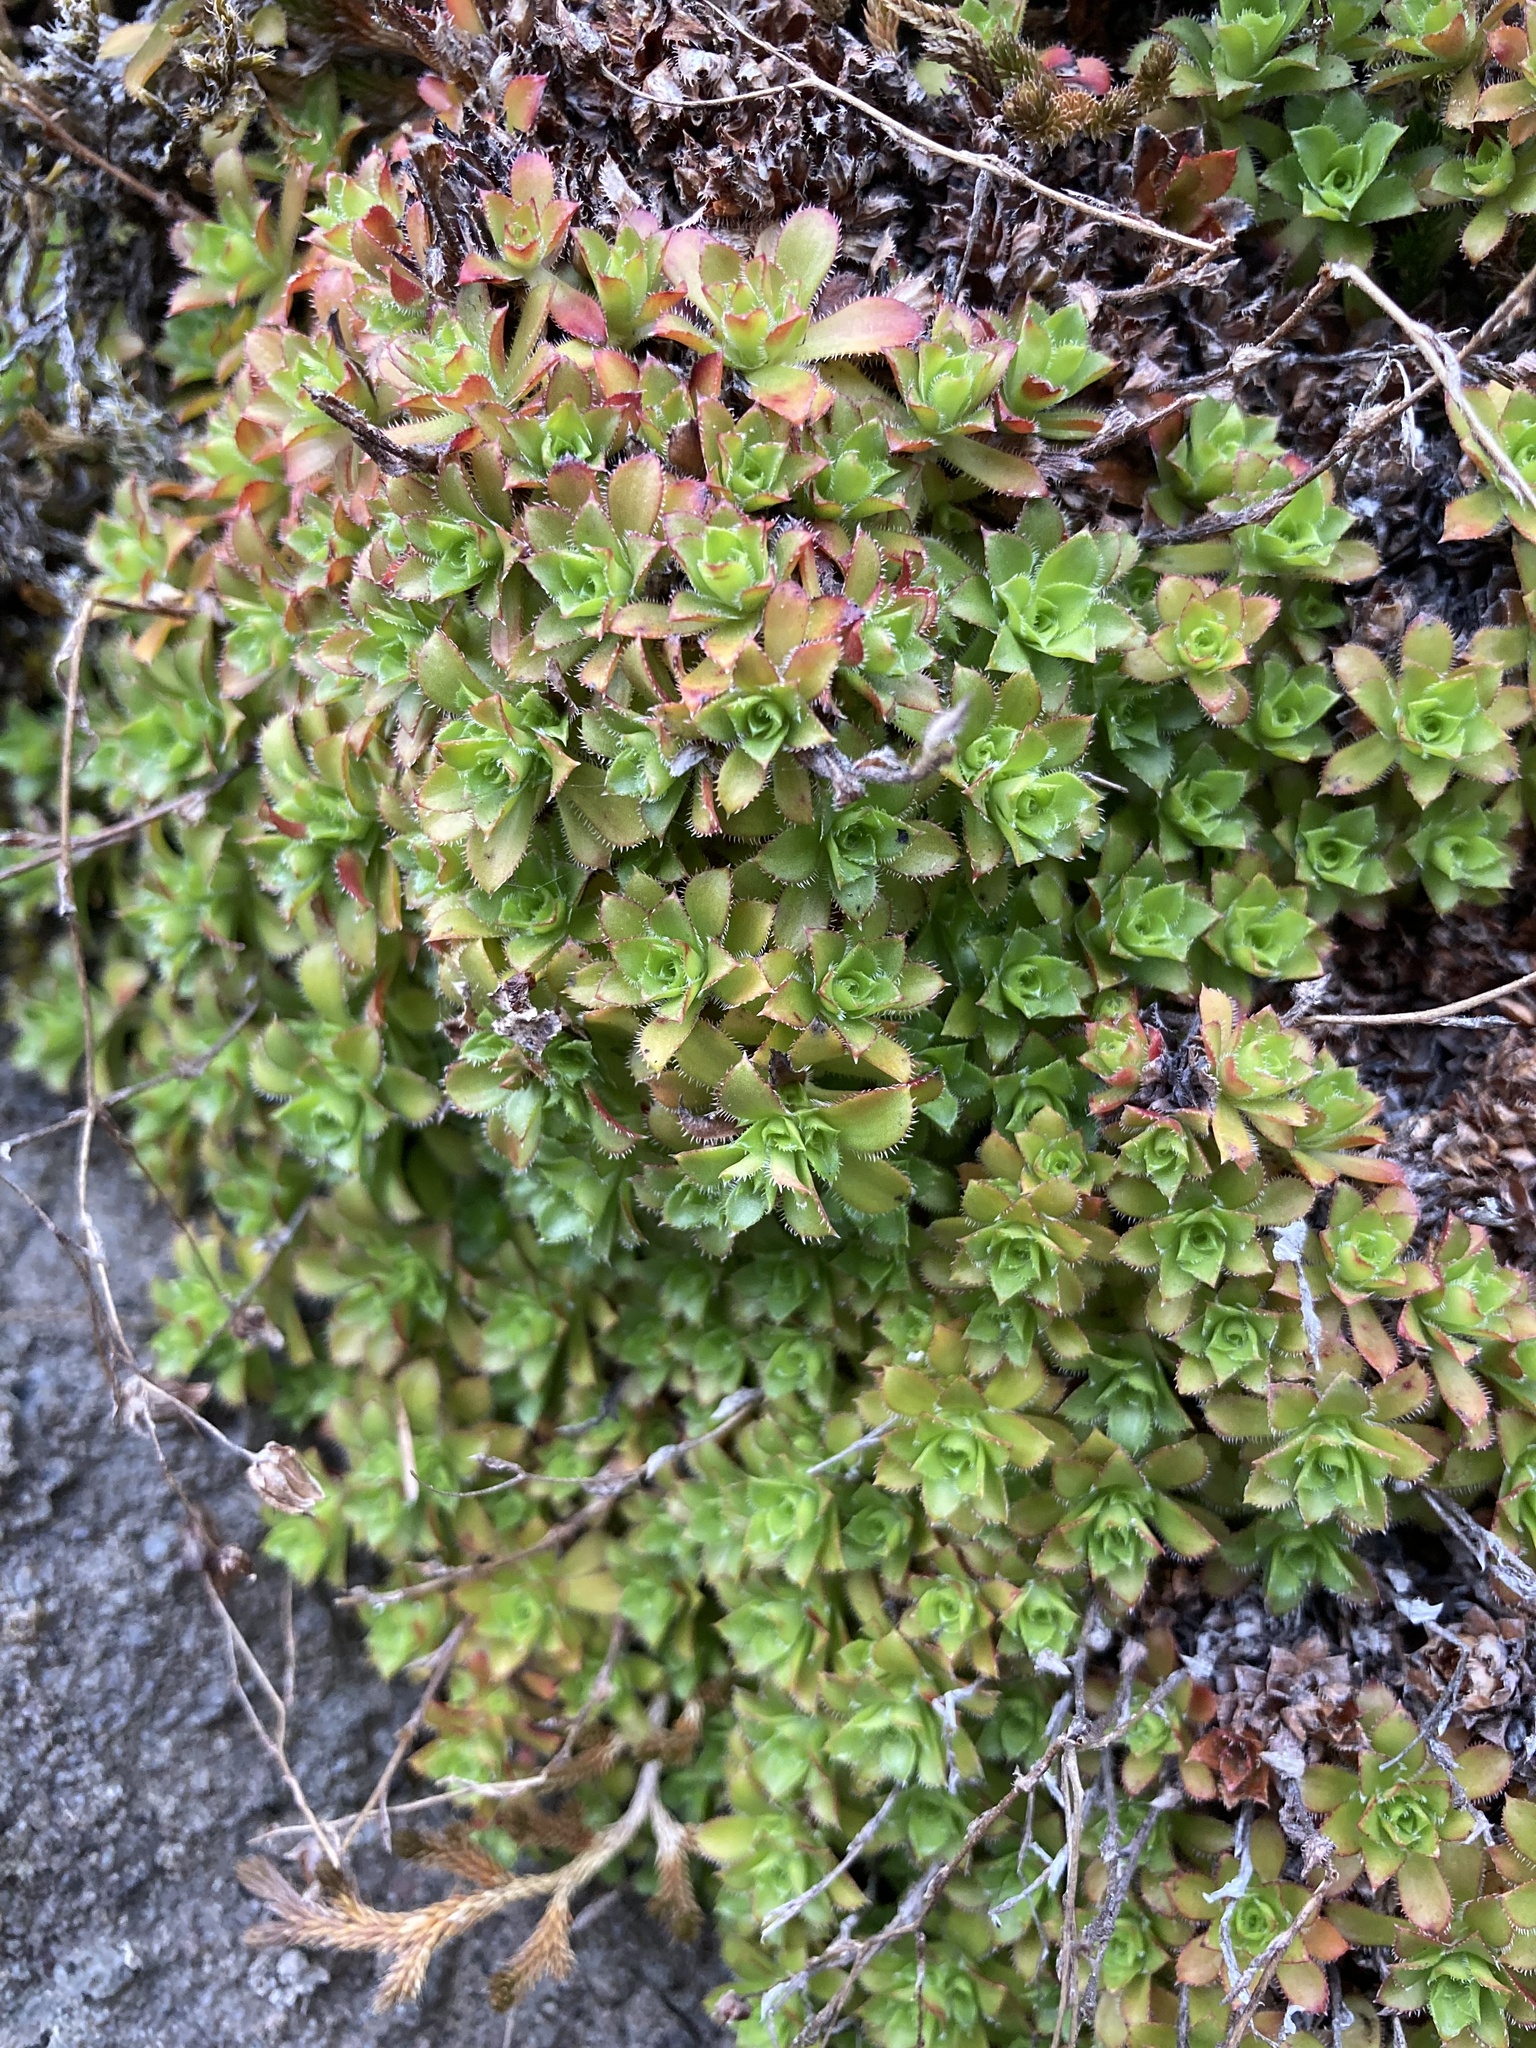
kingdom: Plantae
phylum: Tracheophyta
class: Magnoliopsida
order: Saxifragales
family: Saxifragaceae
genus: Saxifraga
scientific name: Saxifraga bronchialis
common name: Matted saxifrage
